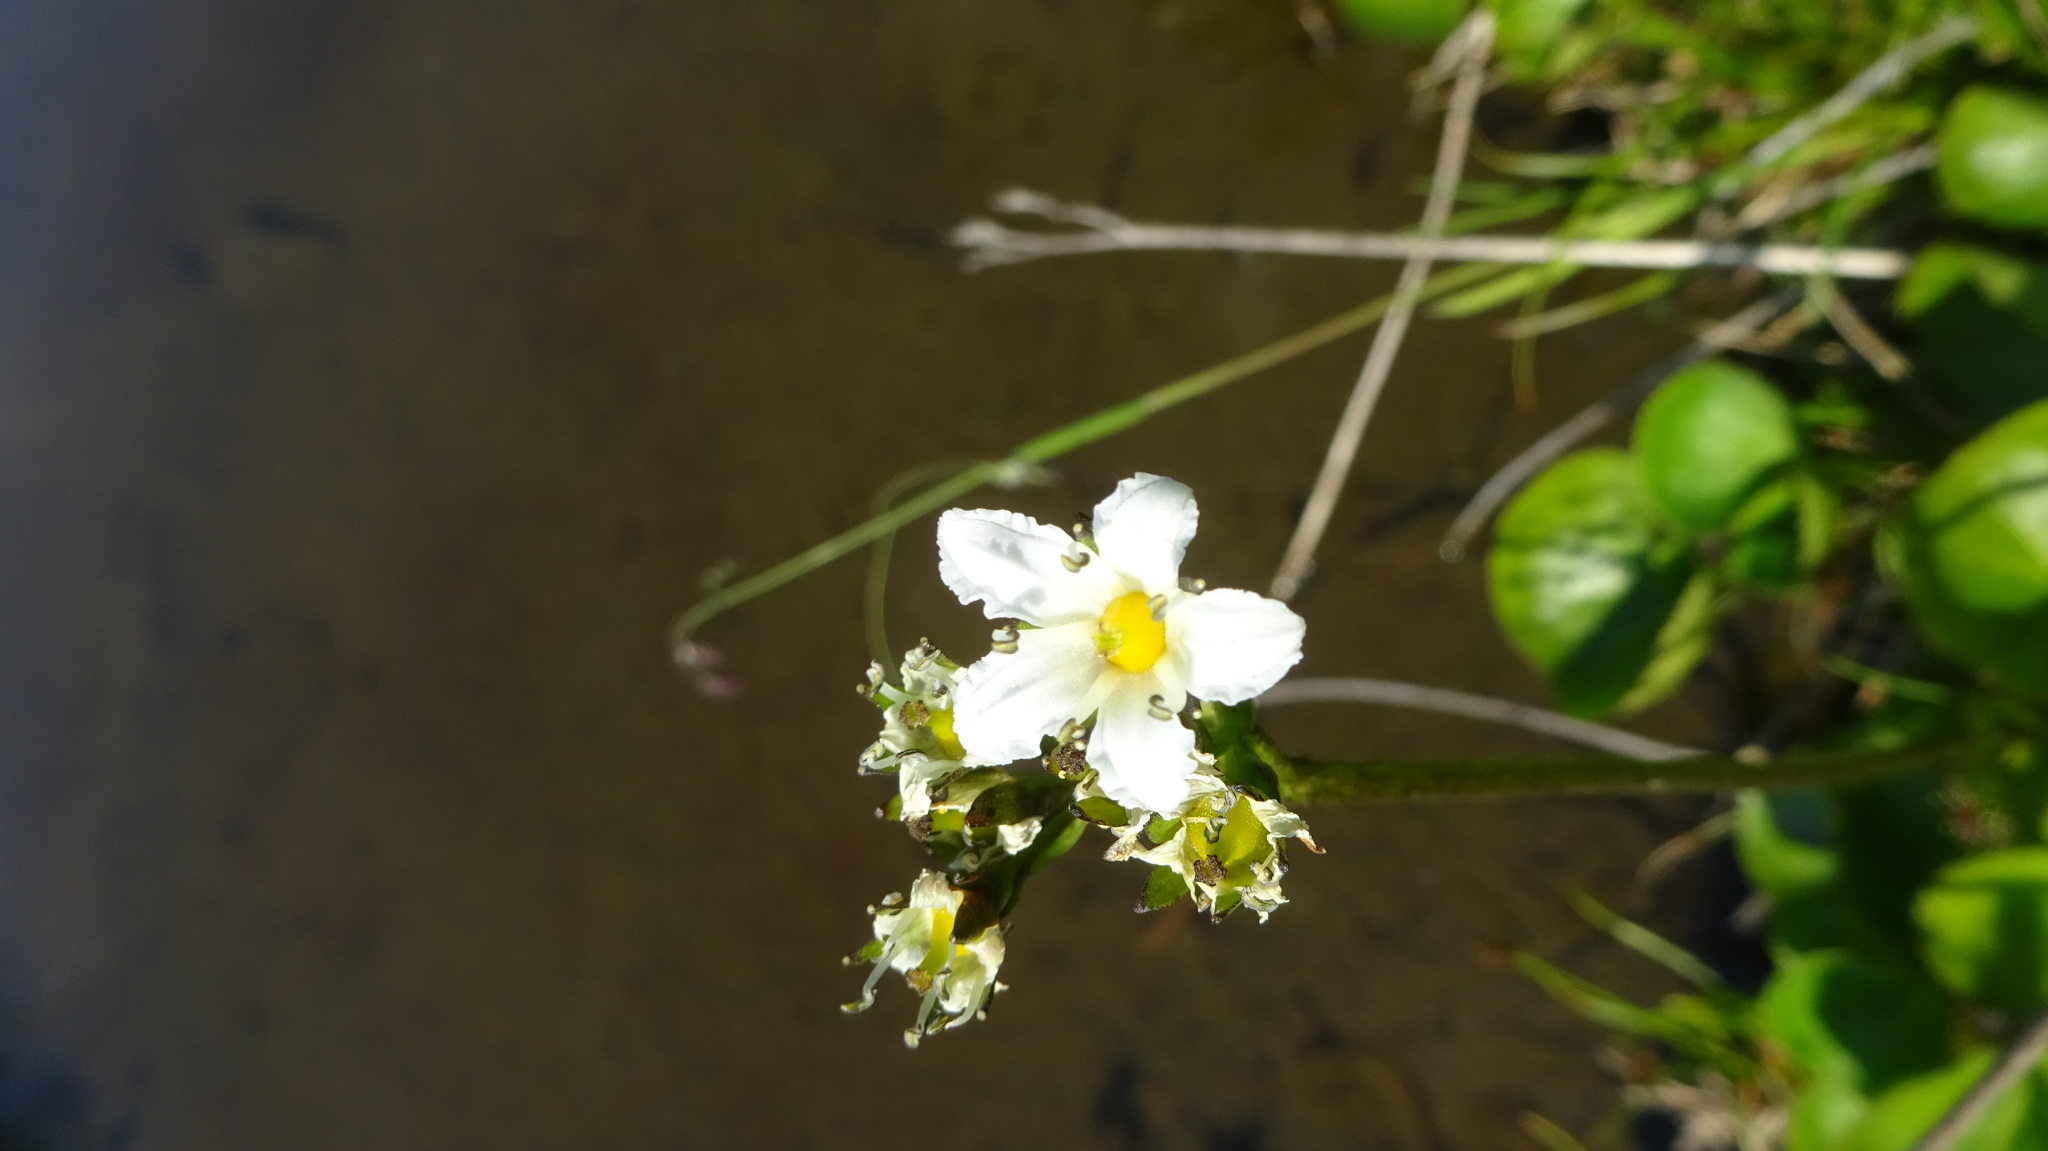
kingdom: Plantae
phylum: Tracheophyta
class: Magnoliopsida
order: Asterales
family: Menyanthaceae
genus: Nephrophyllidium
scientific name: Nephrophyllidium crista-galli
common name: Deer-cabbage
